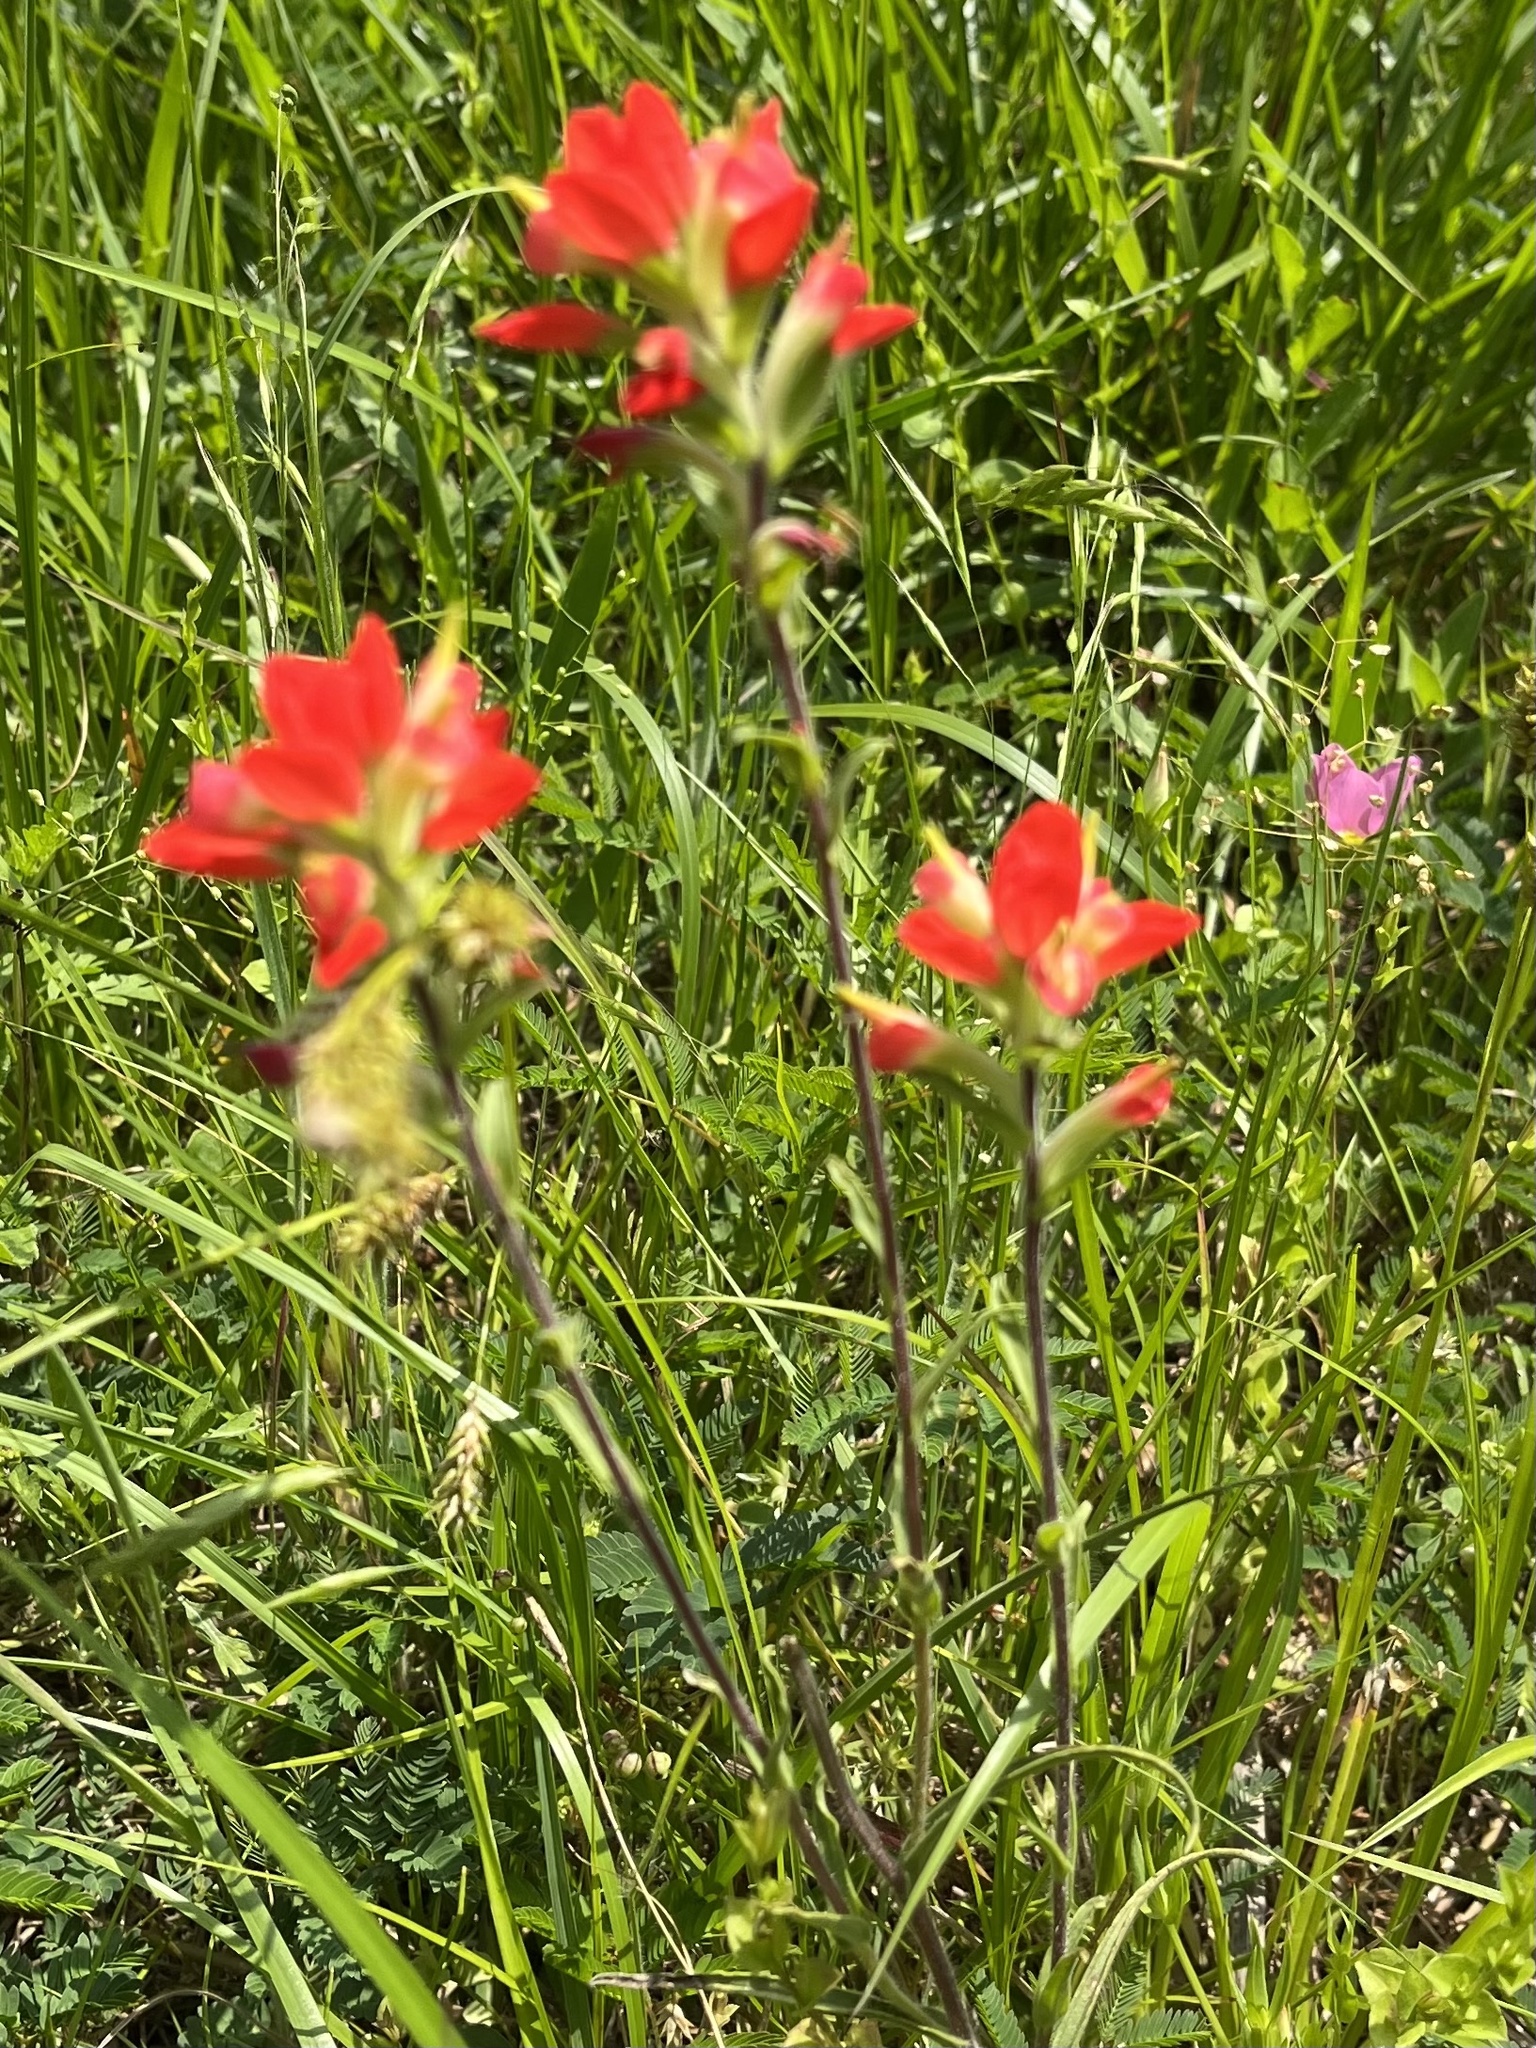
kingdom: Plantae
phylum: Tracheophyta
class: Magnoliopsida
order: Lamiales
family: Orobanchaceae
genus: Castilleja
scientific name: Castilleja indivisa
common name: Texas paintbrush
